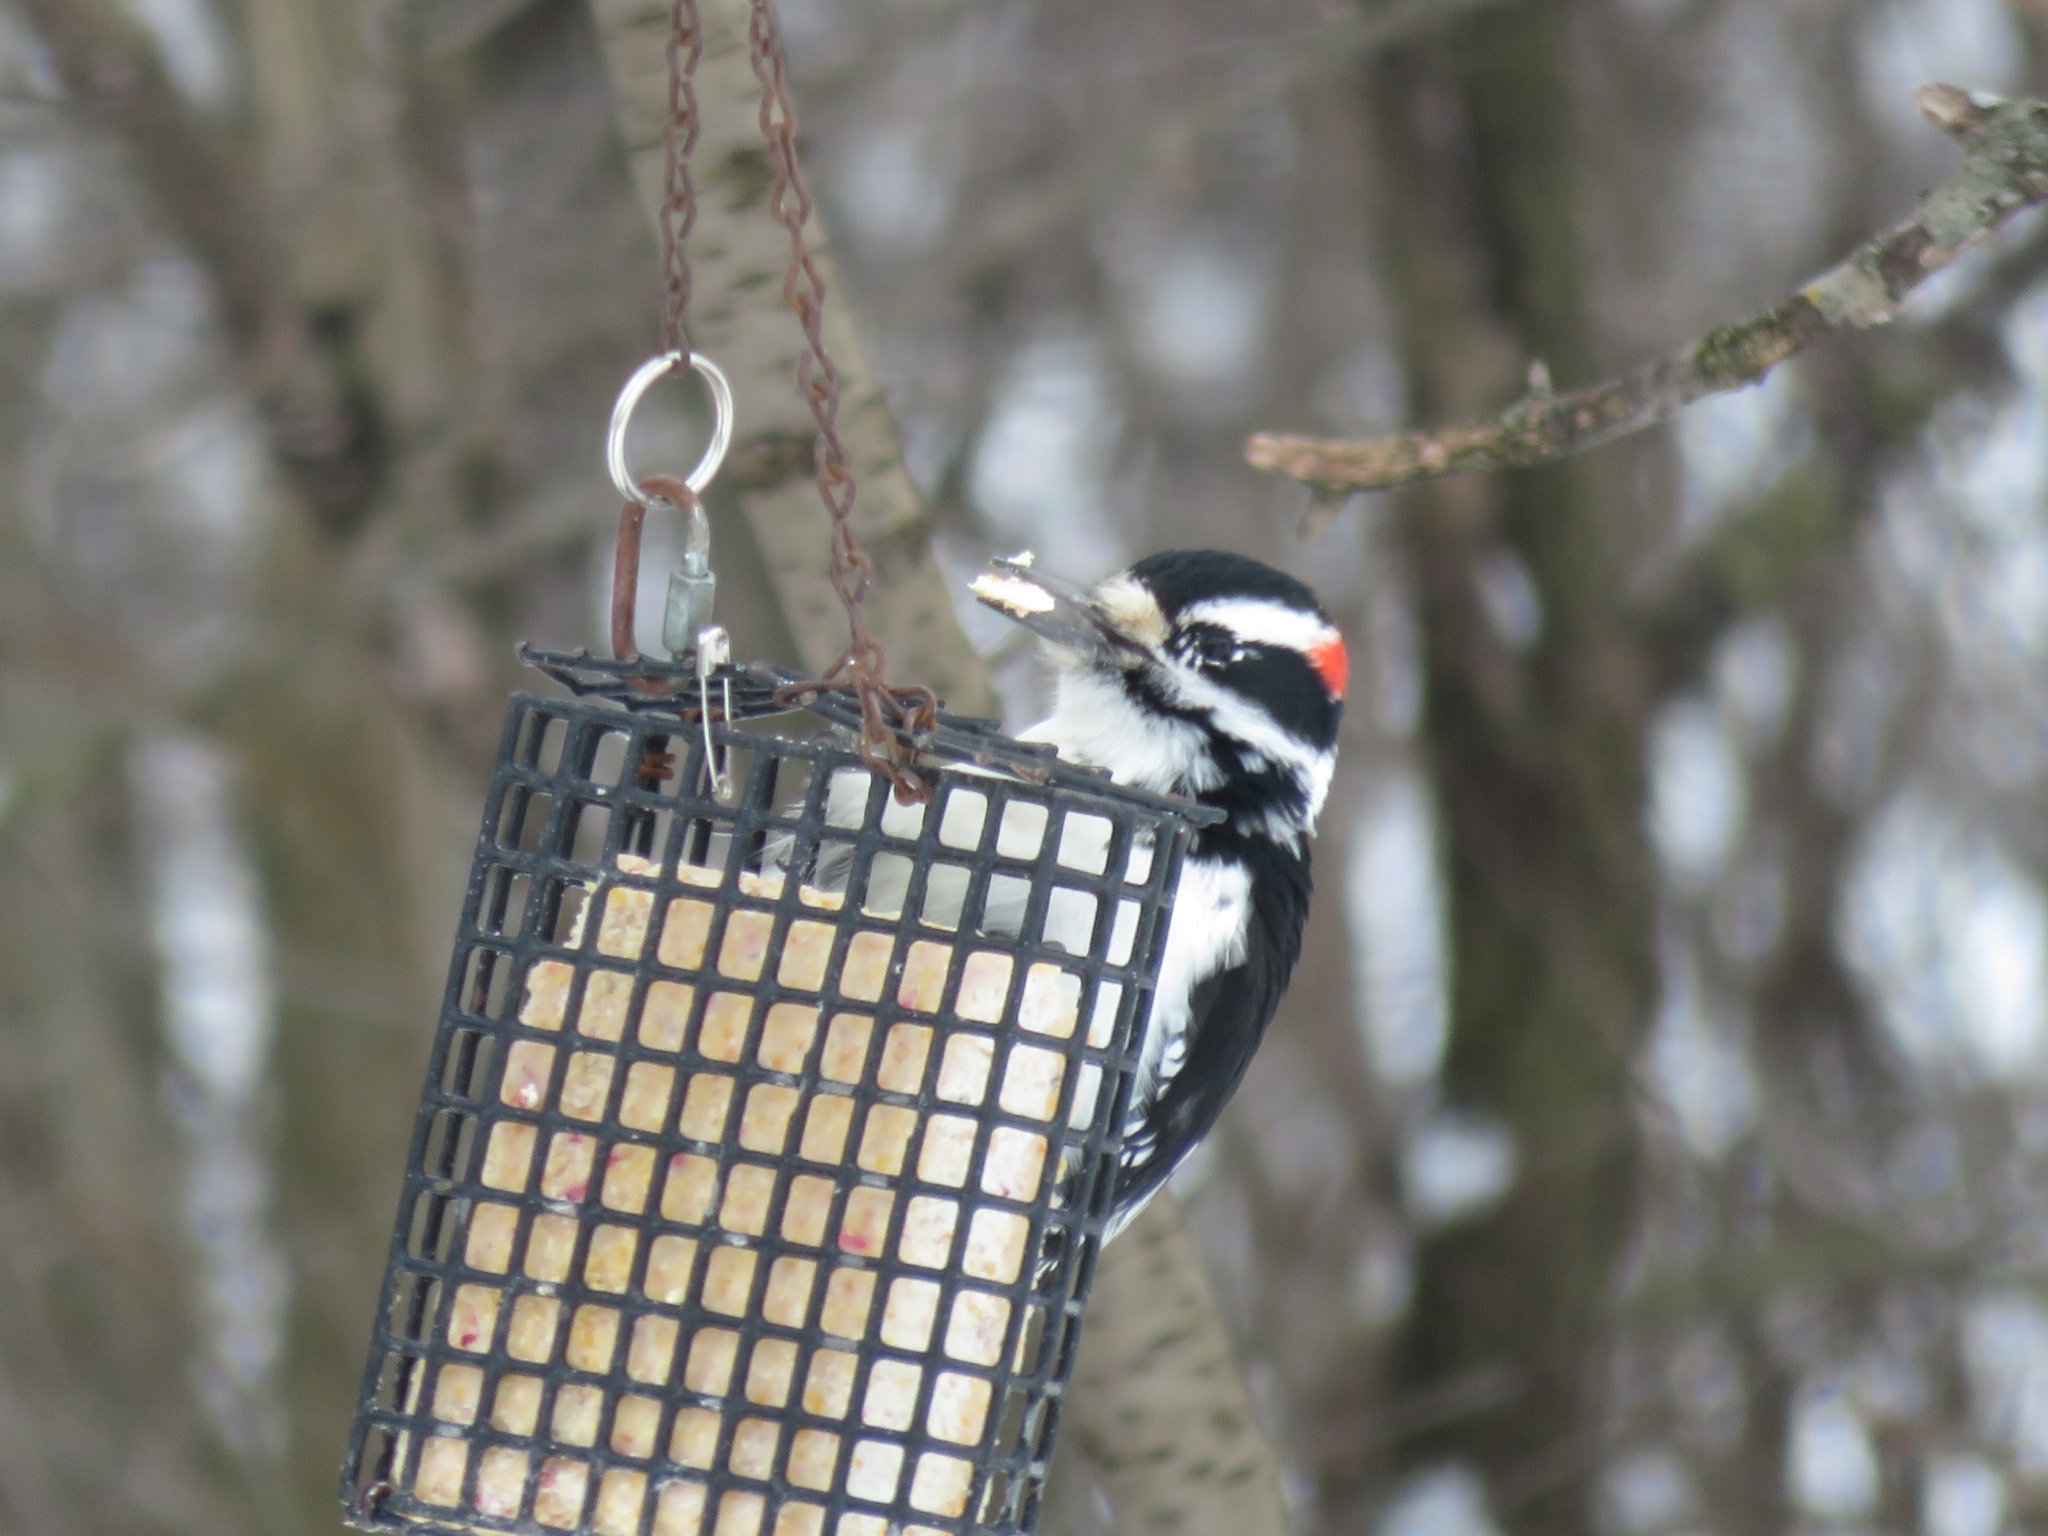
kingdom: Animalia
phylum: Chordata
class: Aves
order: Piciformes
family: Picidae
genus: Leuconotopicus
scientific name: Leuconotopicus villosus
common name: Hairy woodpecker
